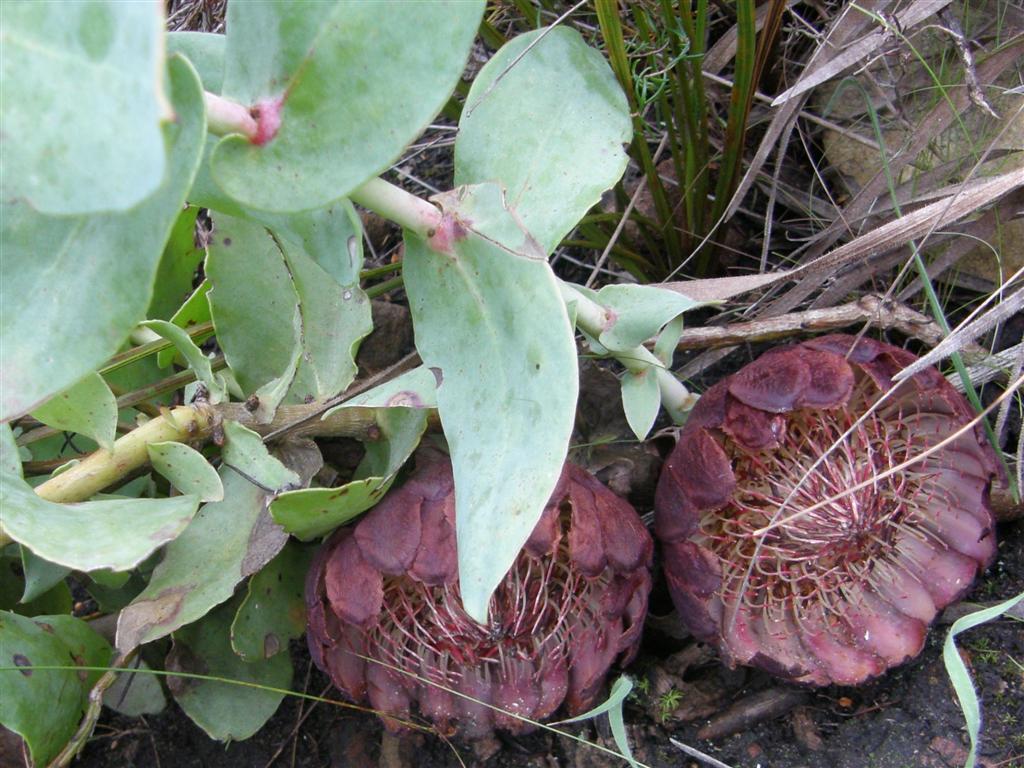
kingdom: Plantae
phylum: Tracheophyta
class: Magnoliopsida
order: Proteales
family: Proteaceae
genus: Protea
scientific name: Protea amplexicaulis
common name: Clasping-leaf sugarbush
